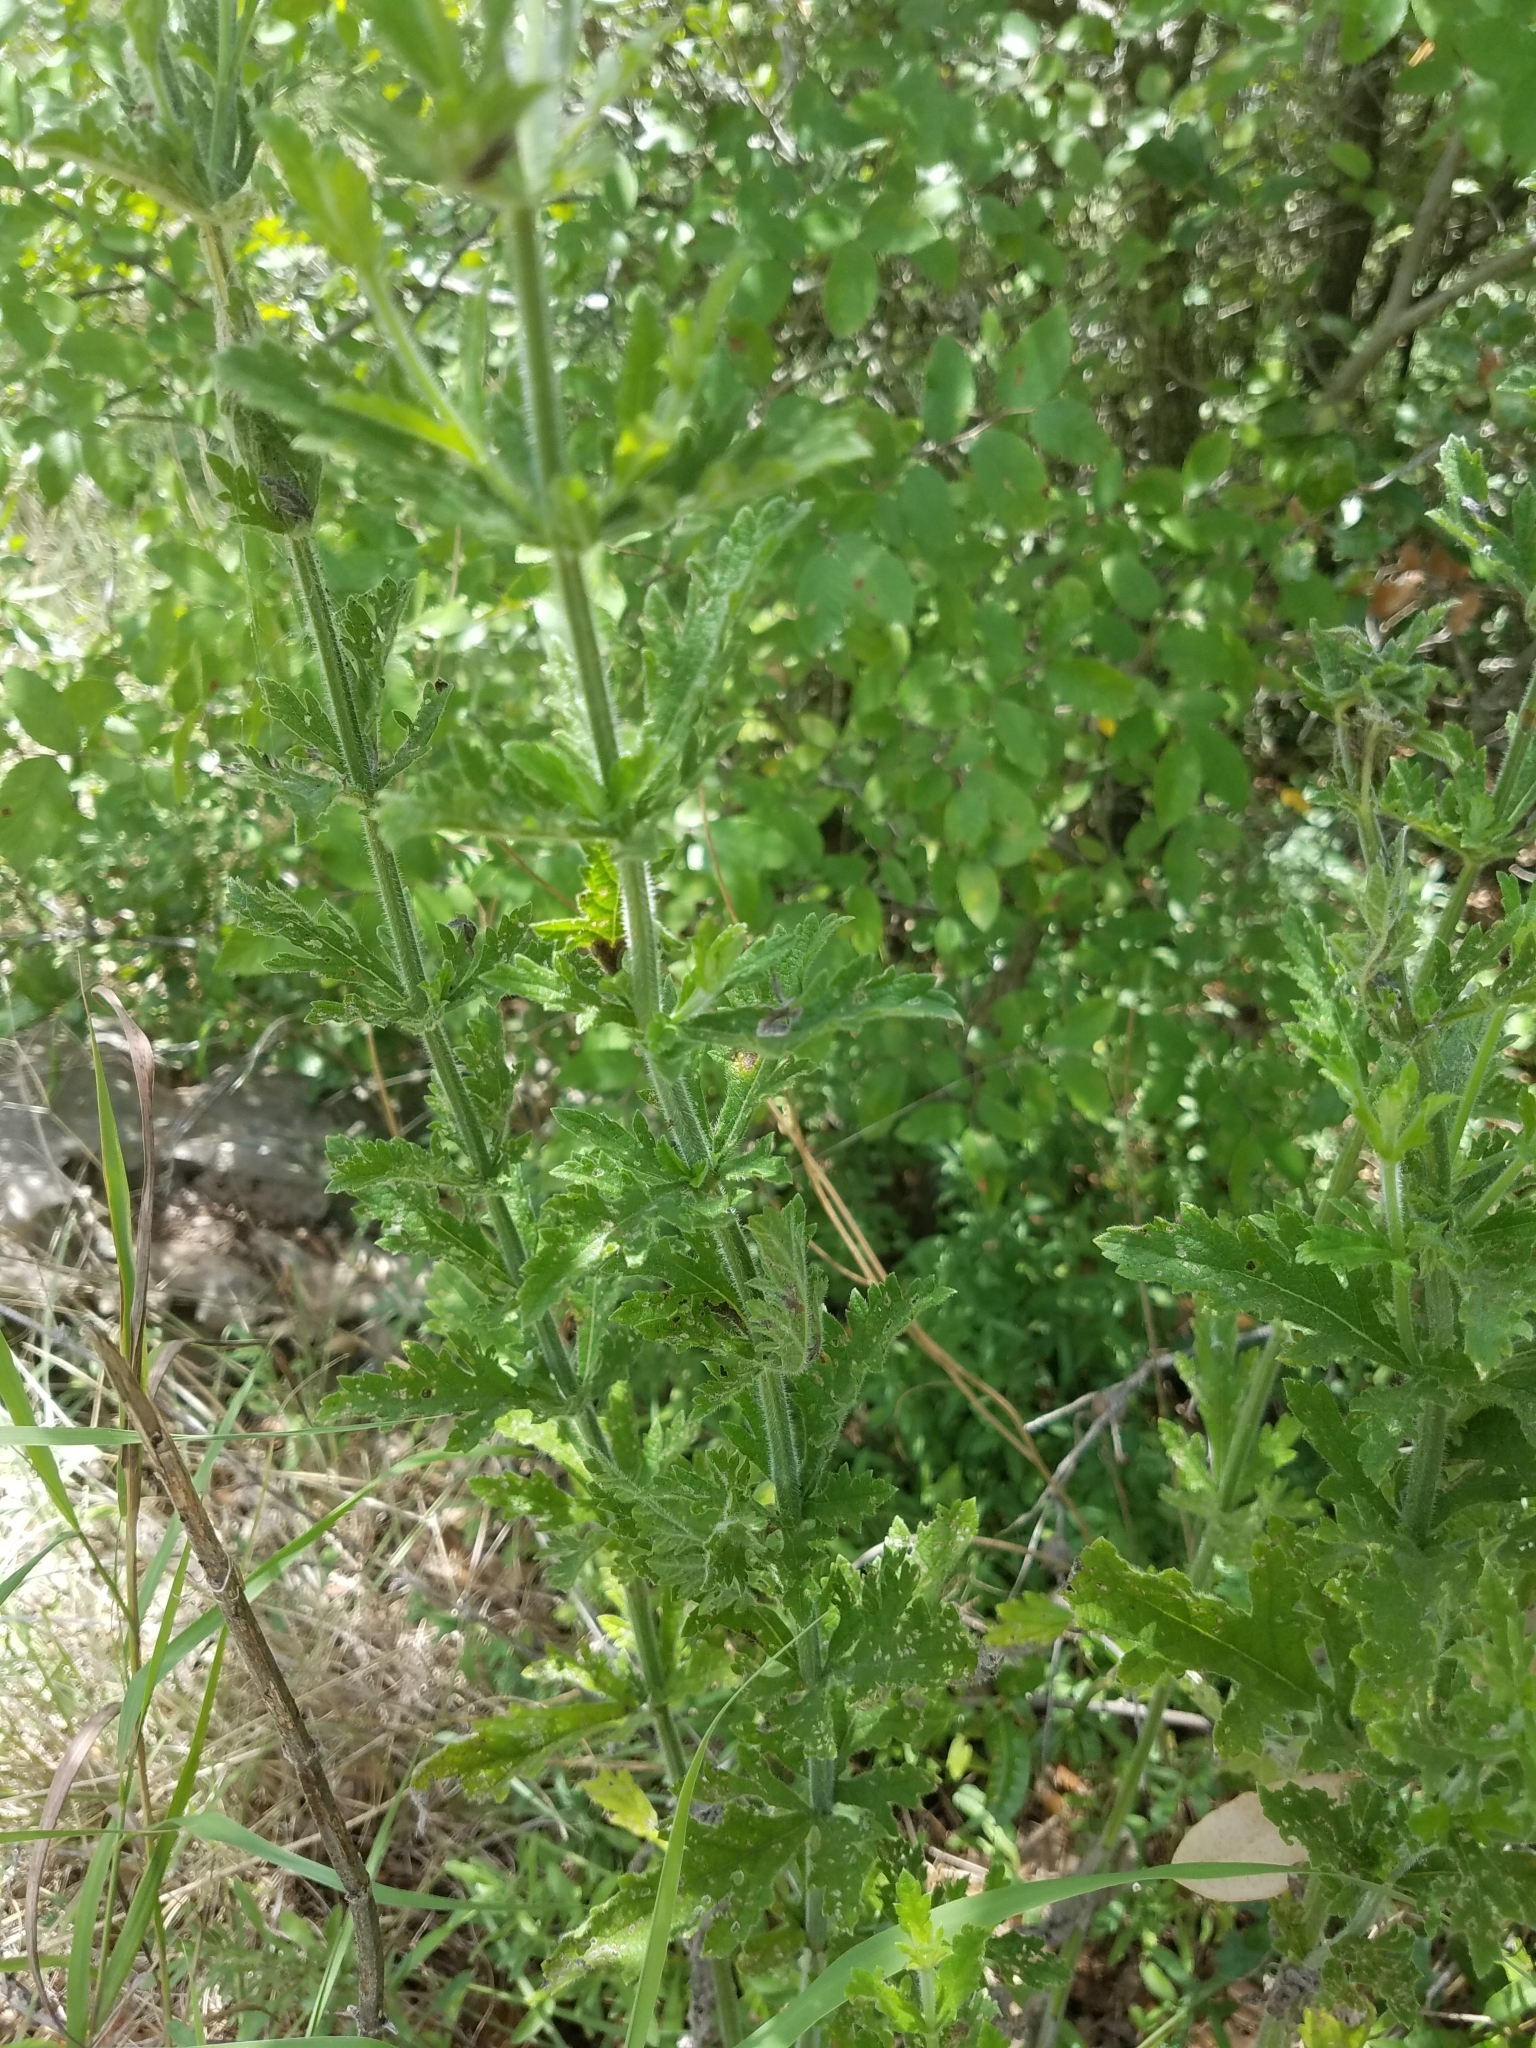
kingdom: Plantae
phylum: Tracheophyta
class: Magnoliopsida
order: Lamiales
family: Verbenaceae
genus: Verbena
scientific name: Verbena halei
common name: Texas vervain
